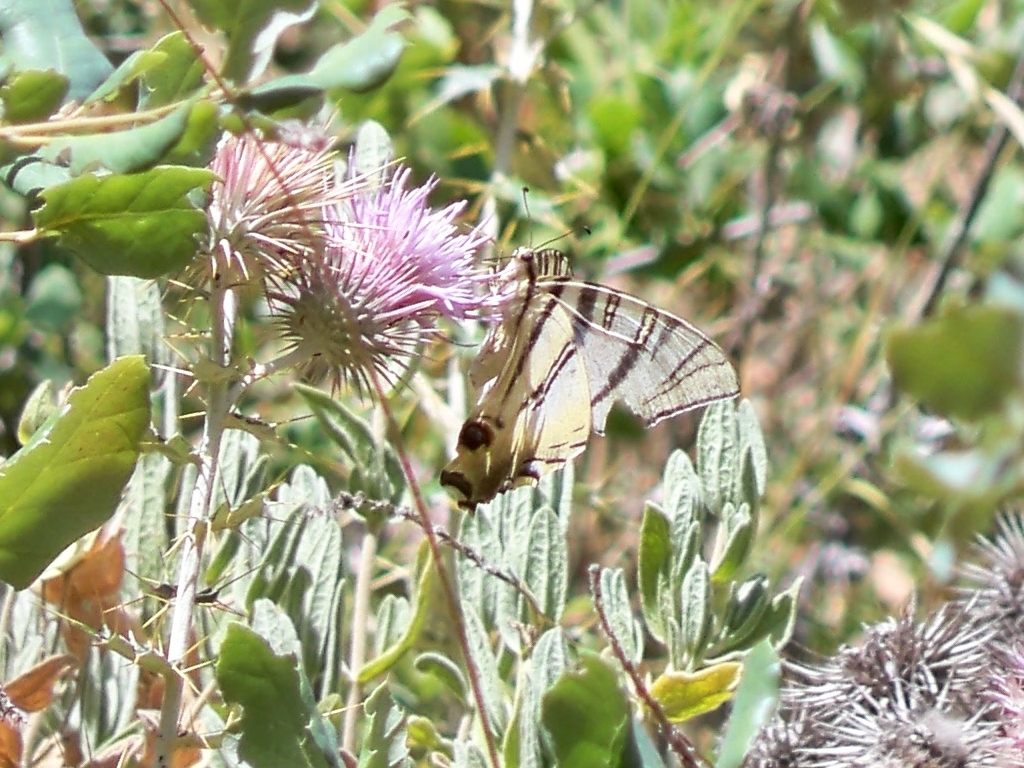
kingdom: Animalia
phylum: Arthropoda
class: Insecta
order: Lepidoptera
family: Papilionidae
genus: Iphiclides
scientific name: Iphiclides feisthamelii
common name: Iberian scarce swallowtail
